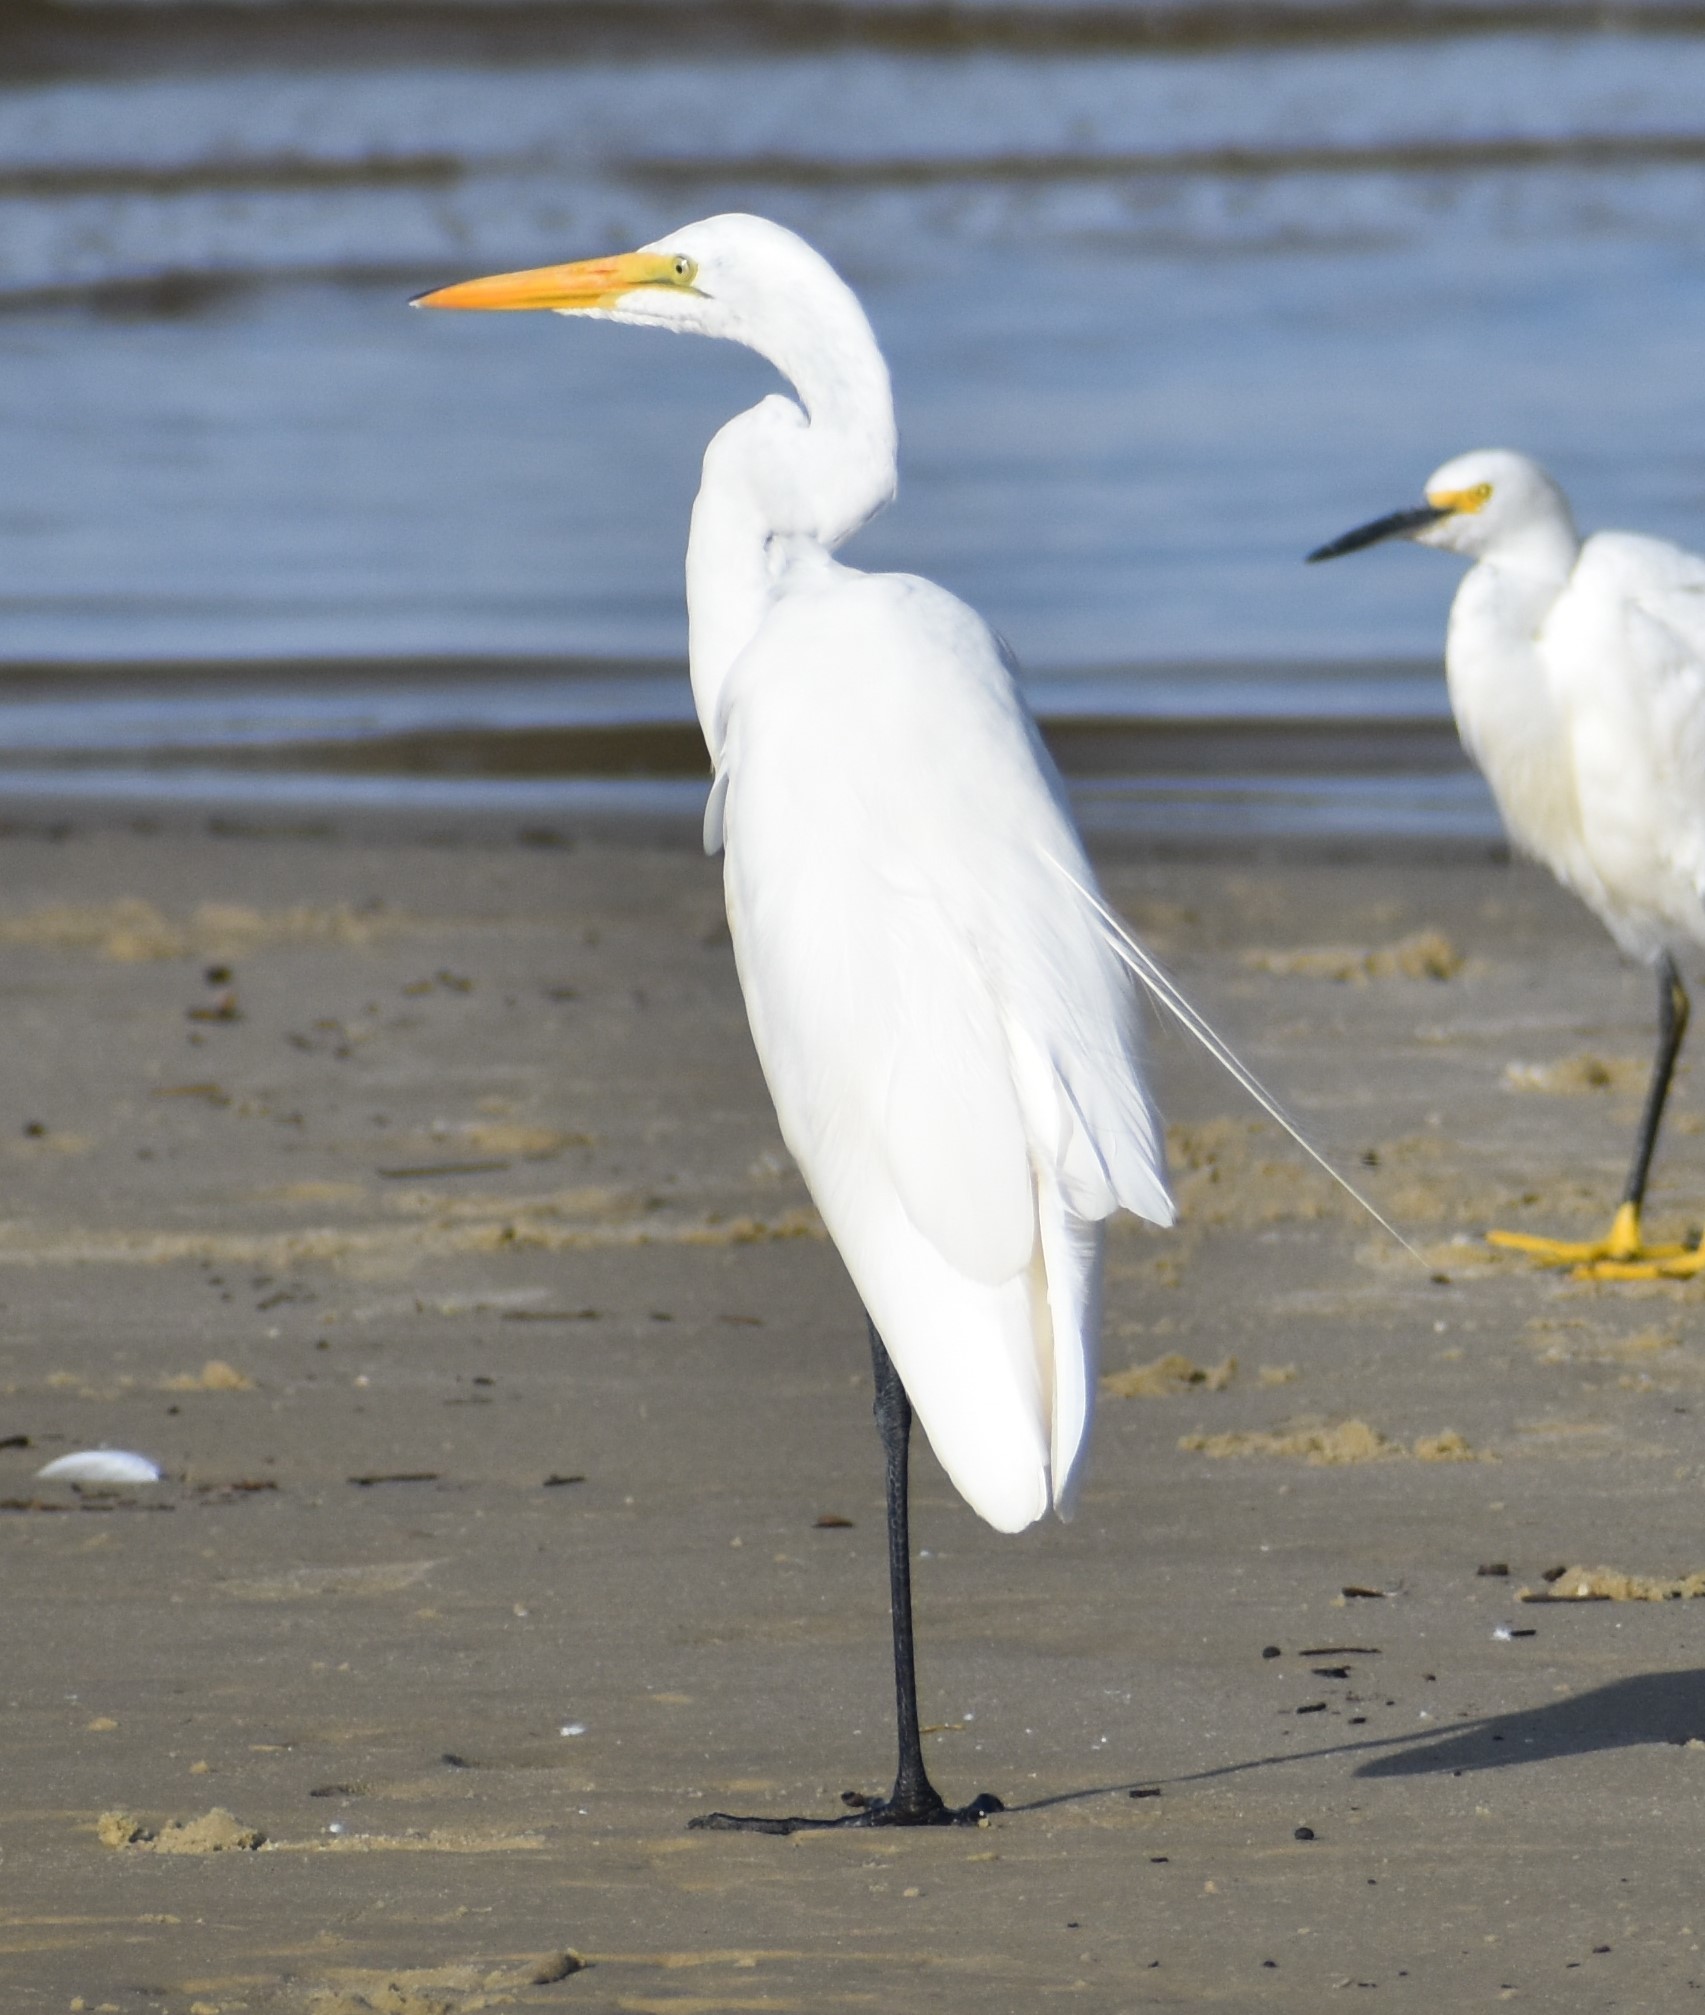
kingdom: Animalia
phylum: Chordata
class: Aves
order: Pelecaniformes
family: Ardeidae
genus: Ardea
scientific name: Ardea alba
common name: Great egret
